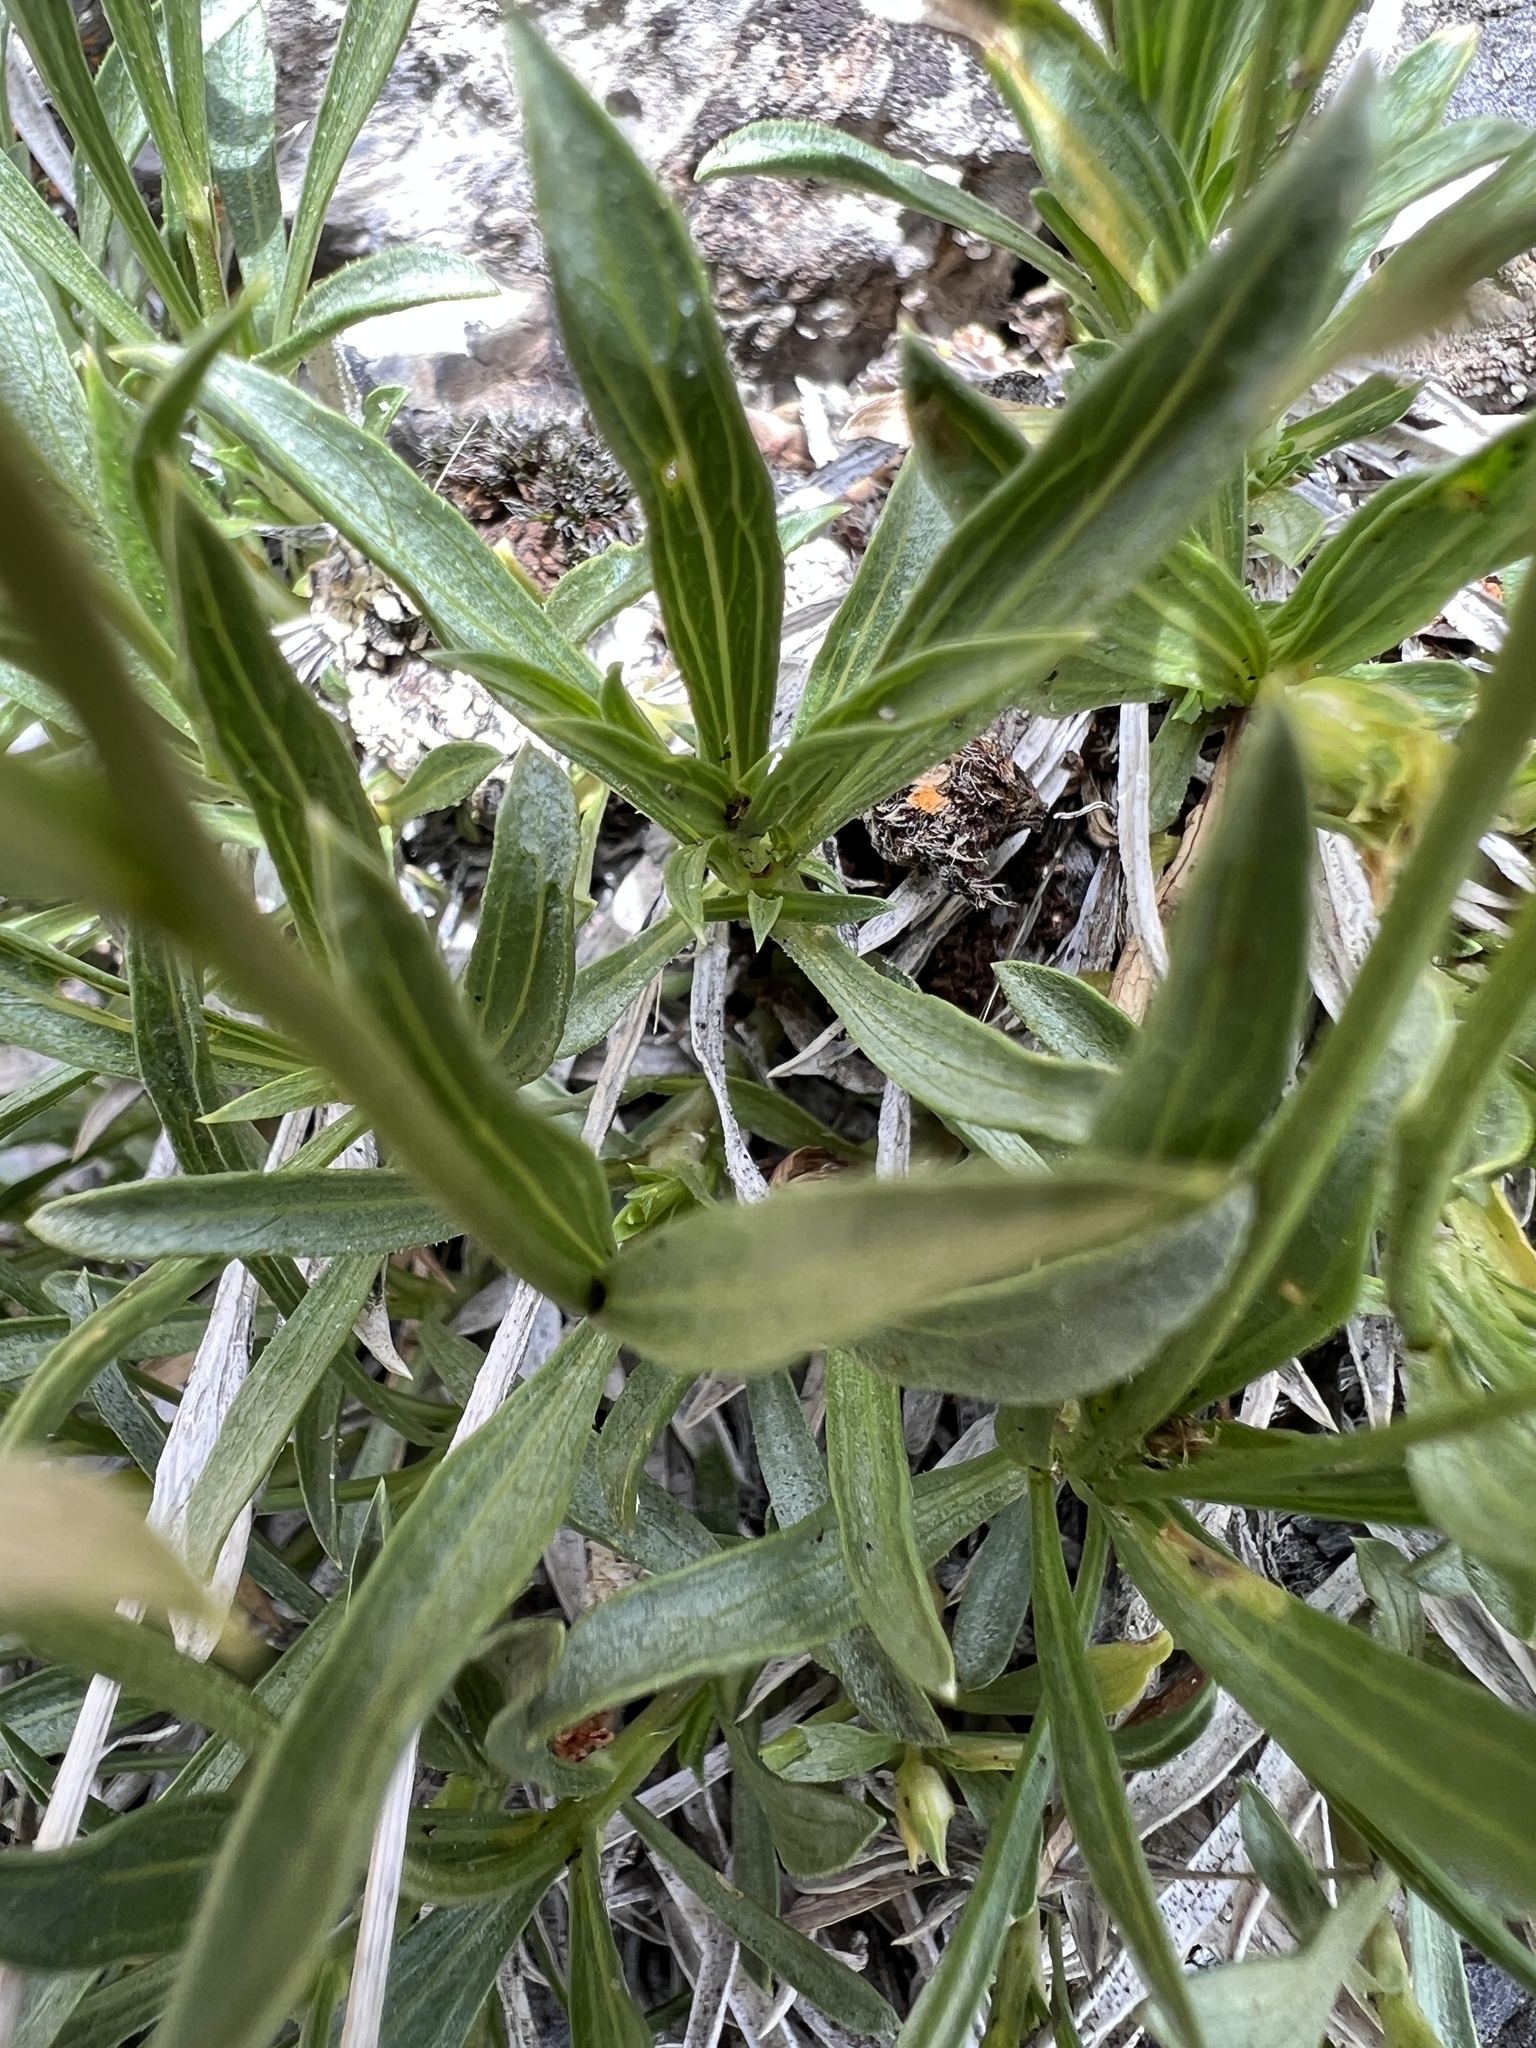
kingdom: Plantae
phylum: Tracheophyta
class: Magnoliopsida
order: Asterales
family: Asteraceae
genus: Stenotus
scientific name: Stenotus acaulis
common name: Stemless goldenweed
